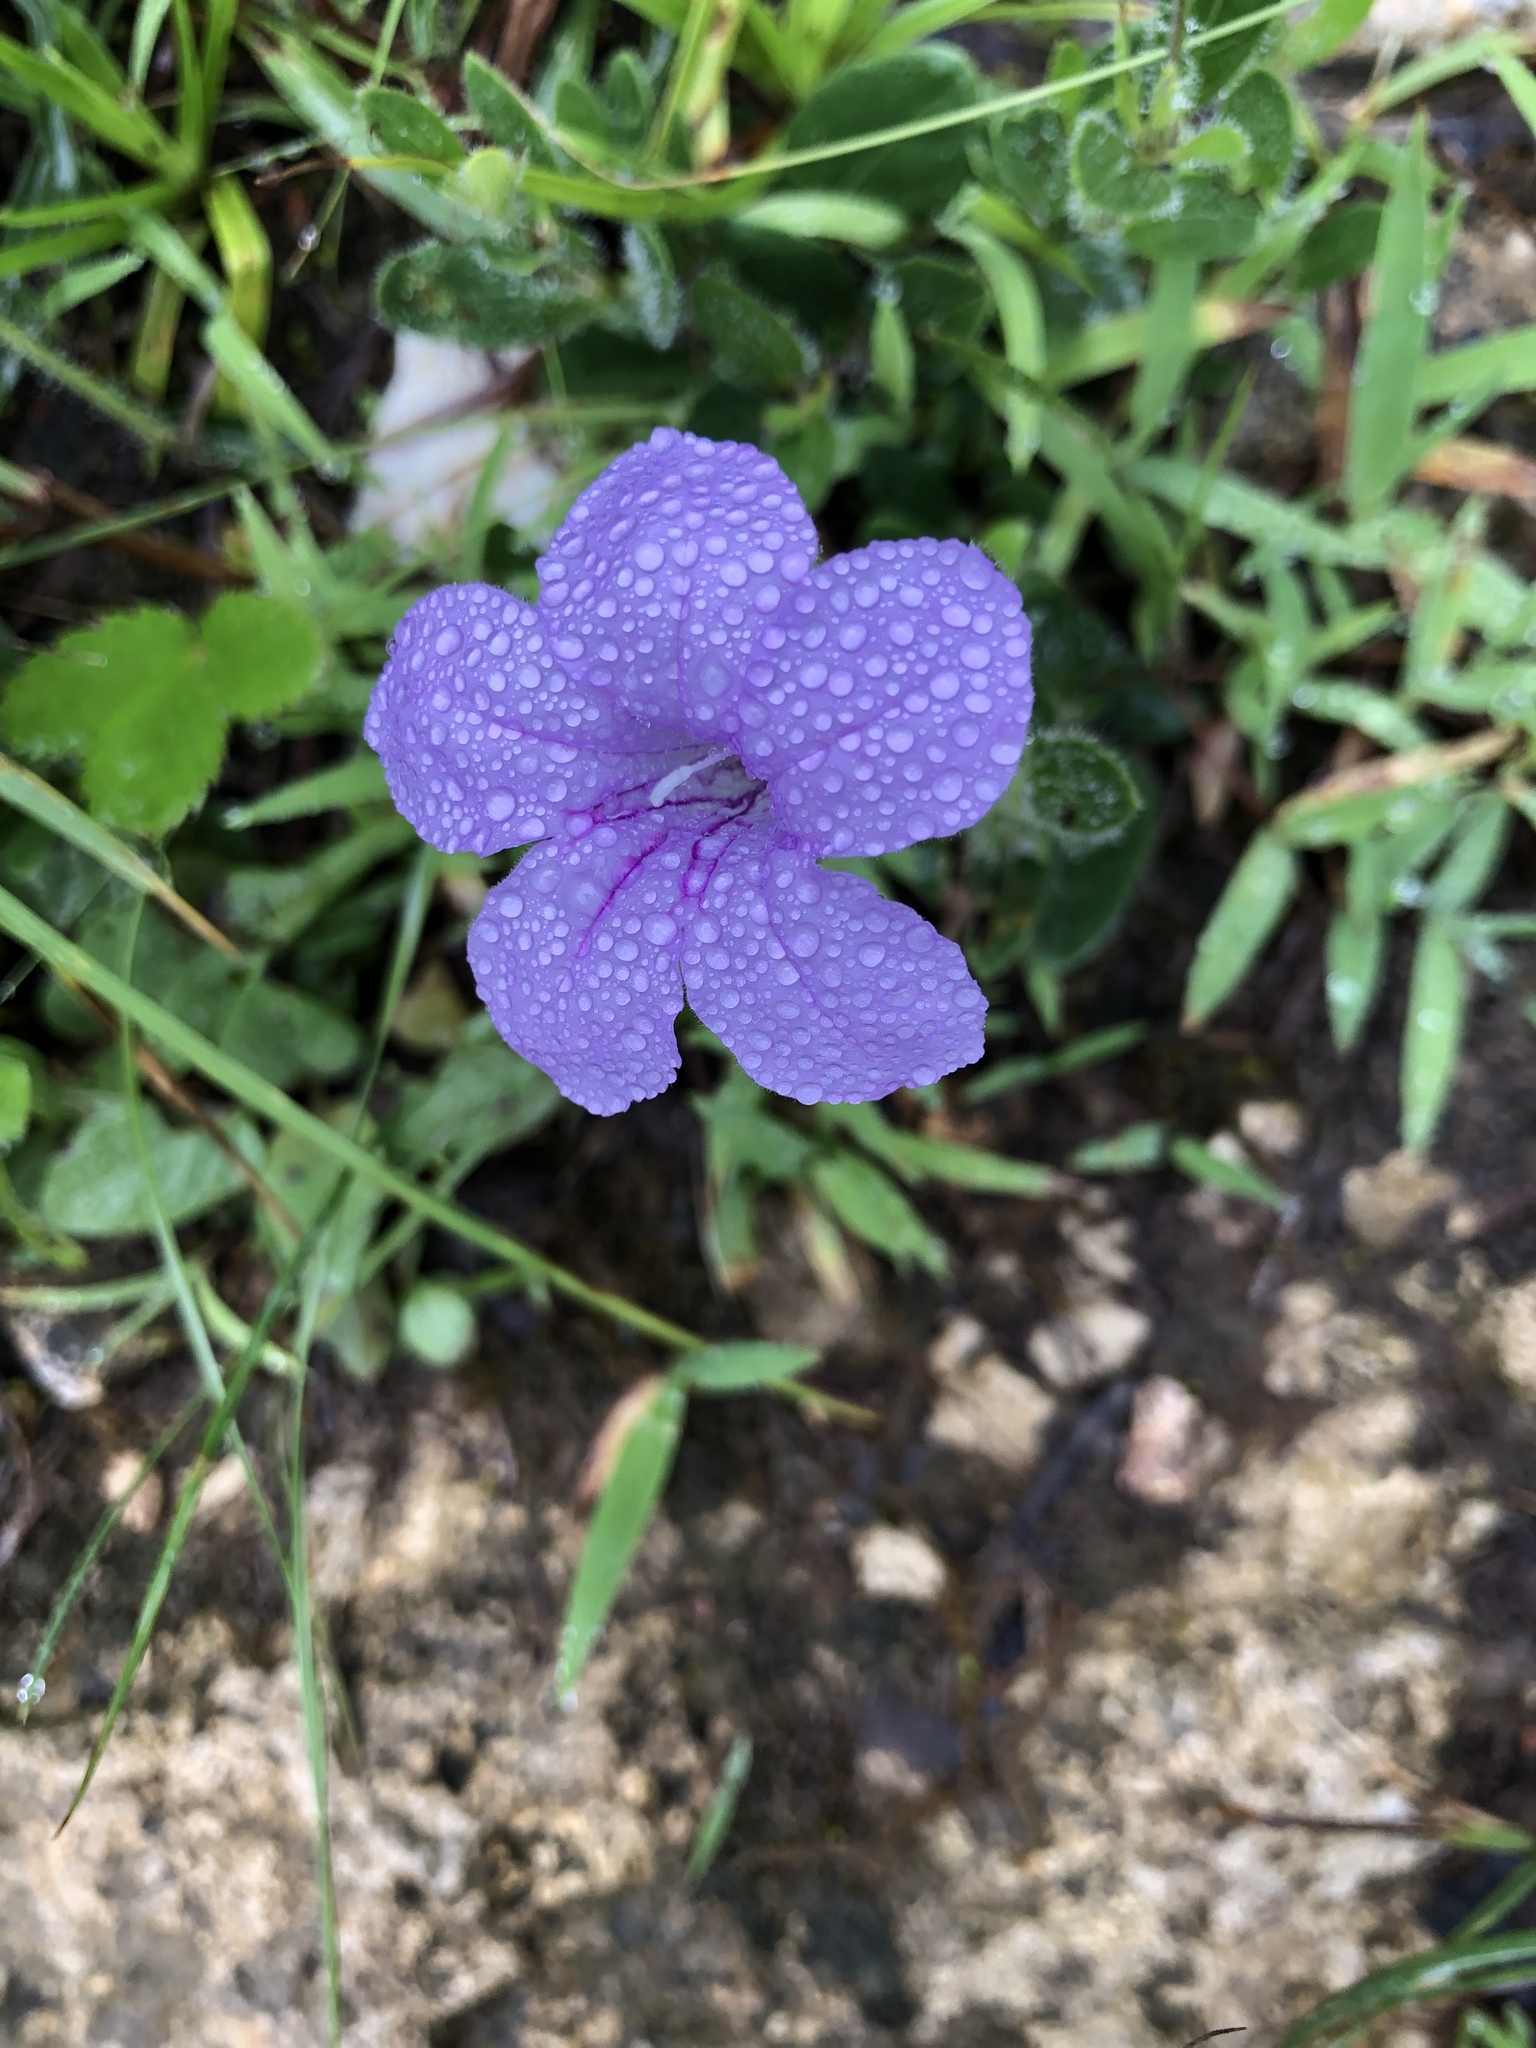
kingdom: Plantae
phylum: Tracheophyta
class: Magnoliopsida
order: Lamiales
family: Acanthaceae
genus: Ruellia
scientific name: Ruellia humilis
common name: Fringe-leaf ruellia
